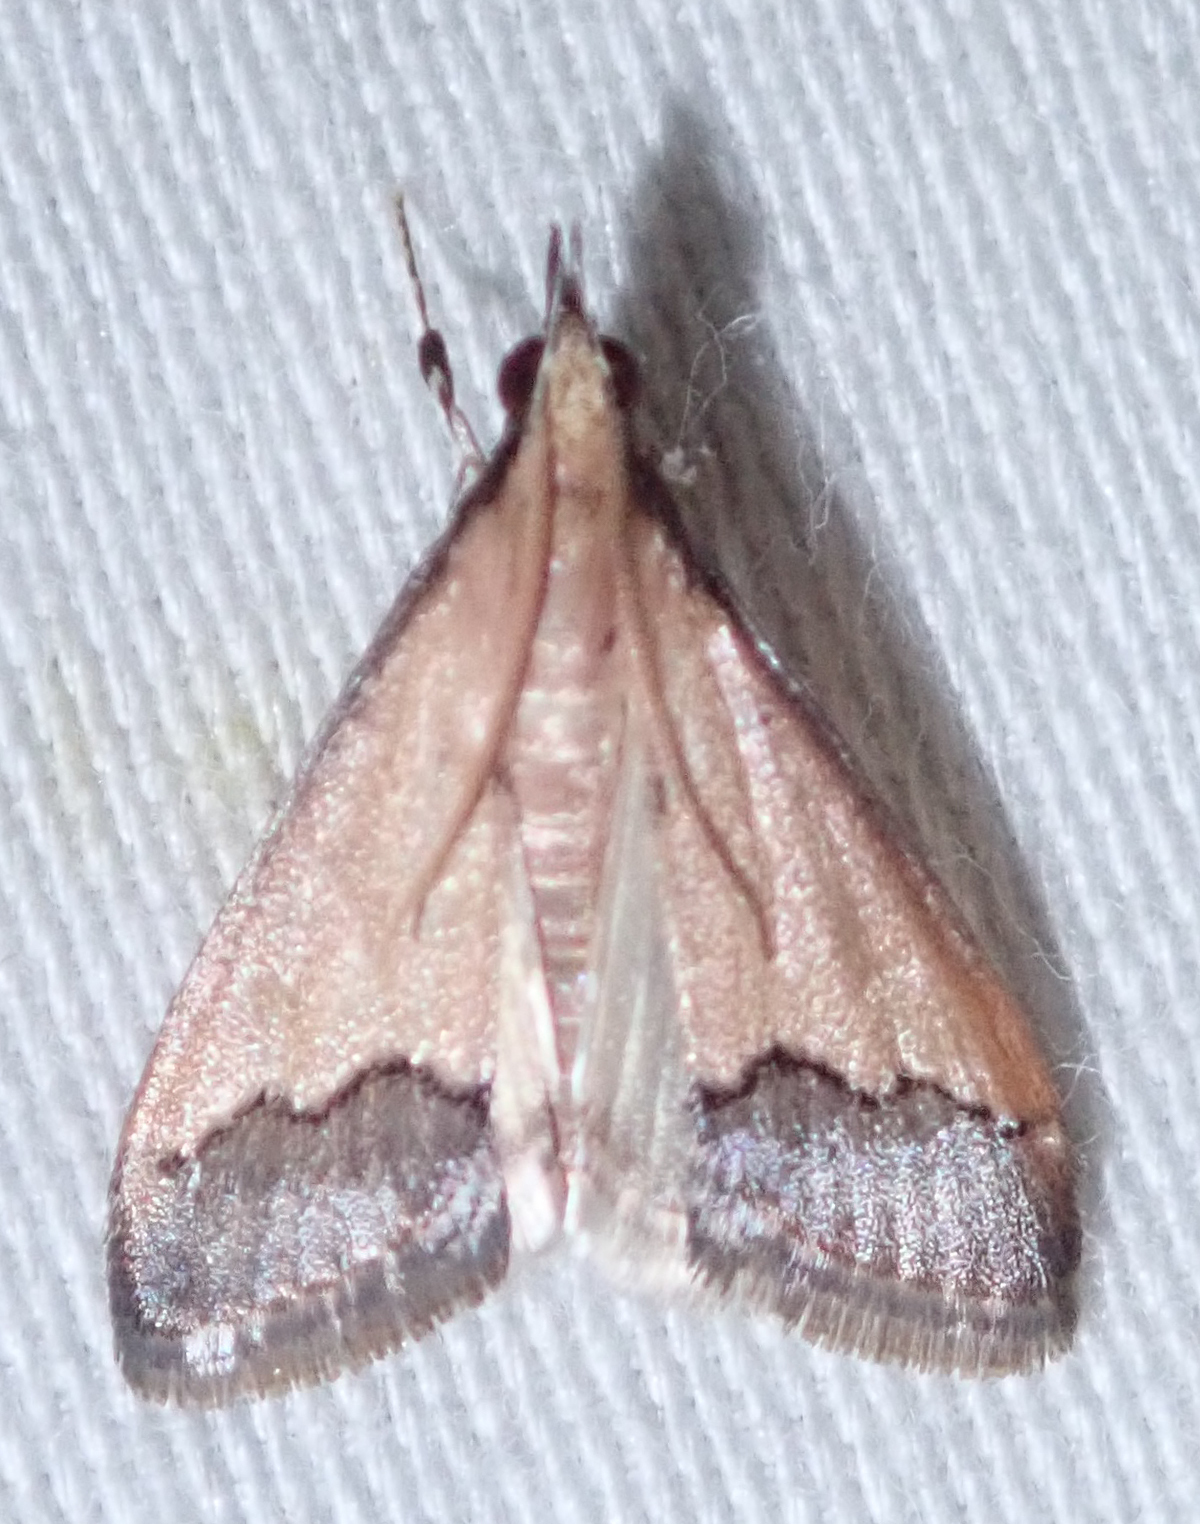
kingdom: Animalia
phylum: Arthropoda
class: Insecta
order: Lepidoptera
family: Crambidae
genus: Autocharis
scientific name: Autocharis rubricostalis
